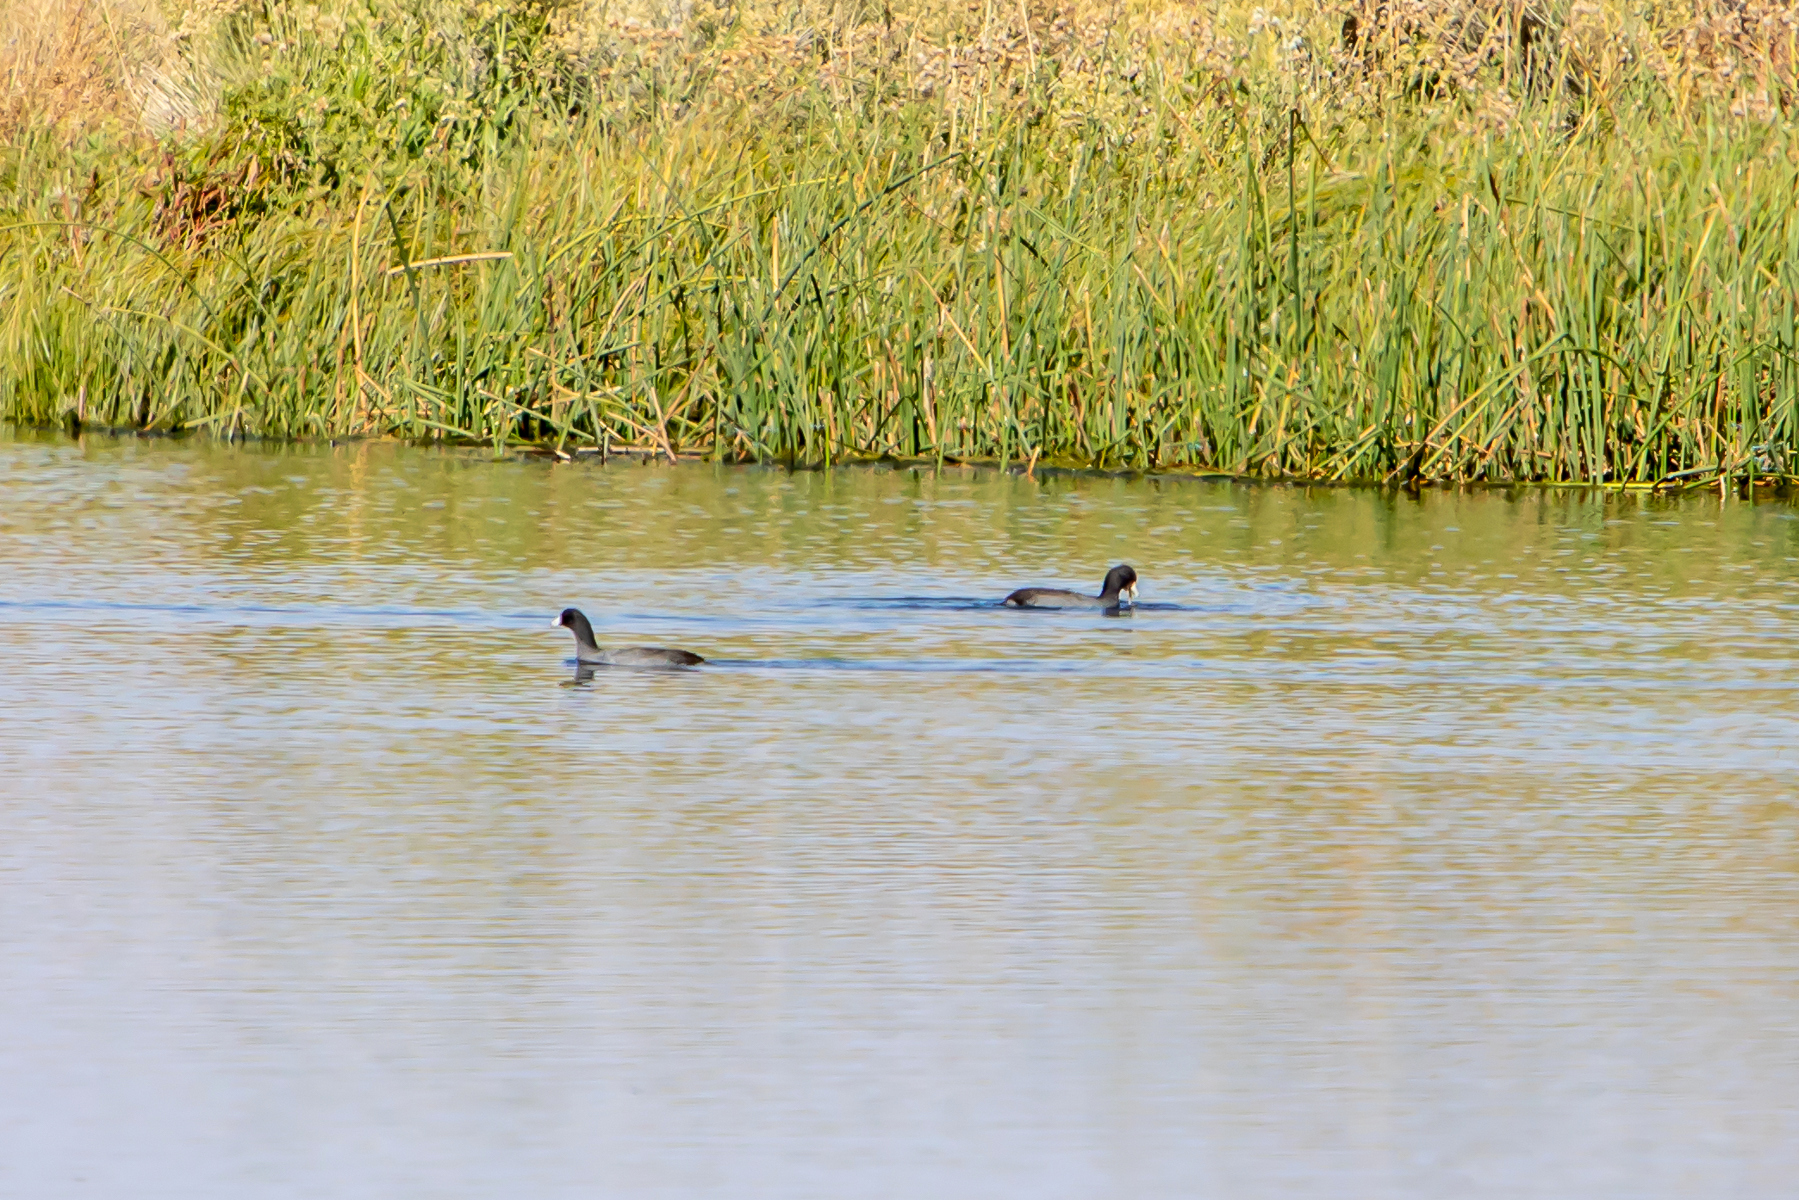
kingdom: Animalia
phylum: Chordata
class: Aves
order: Gruiformes
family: Rallidae
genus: Fulica
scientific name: Fulica americana
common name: American coot
